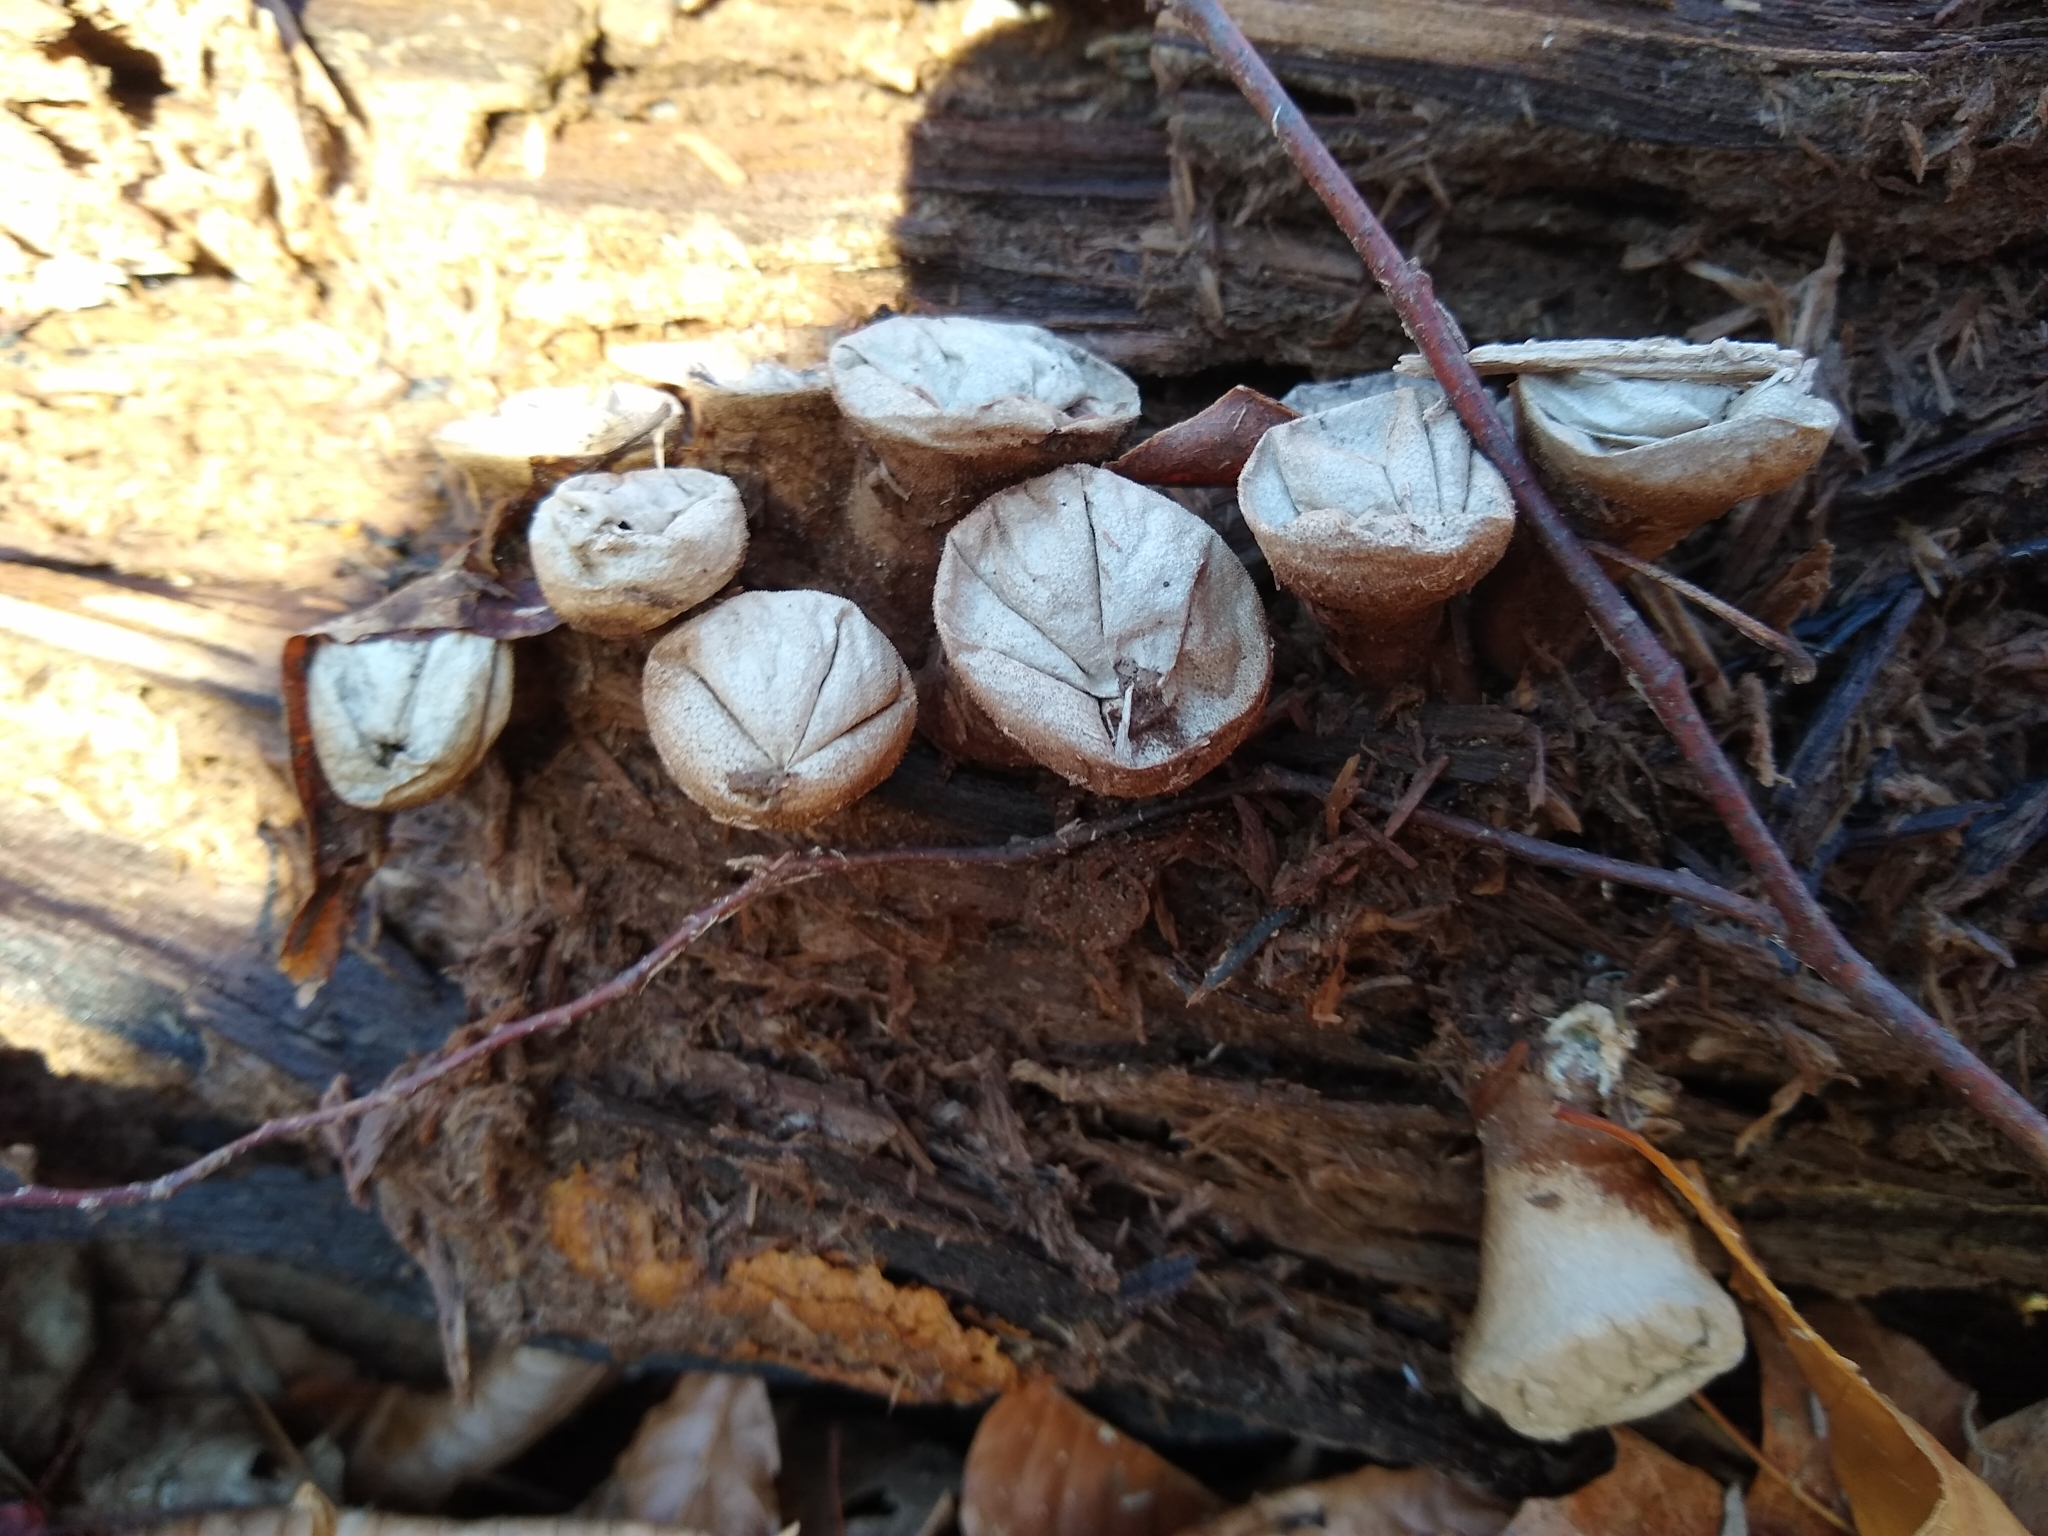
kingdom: Fungi
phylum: Basidiomycota
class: Agaricomycetes
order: Agaricales
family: Lycoperdaceae
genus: Apioperdon
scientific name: Apioperdon pyriforme
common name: Pear-shaped puffball
